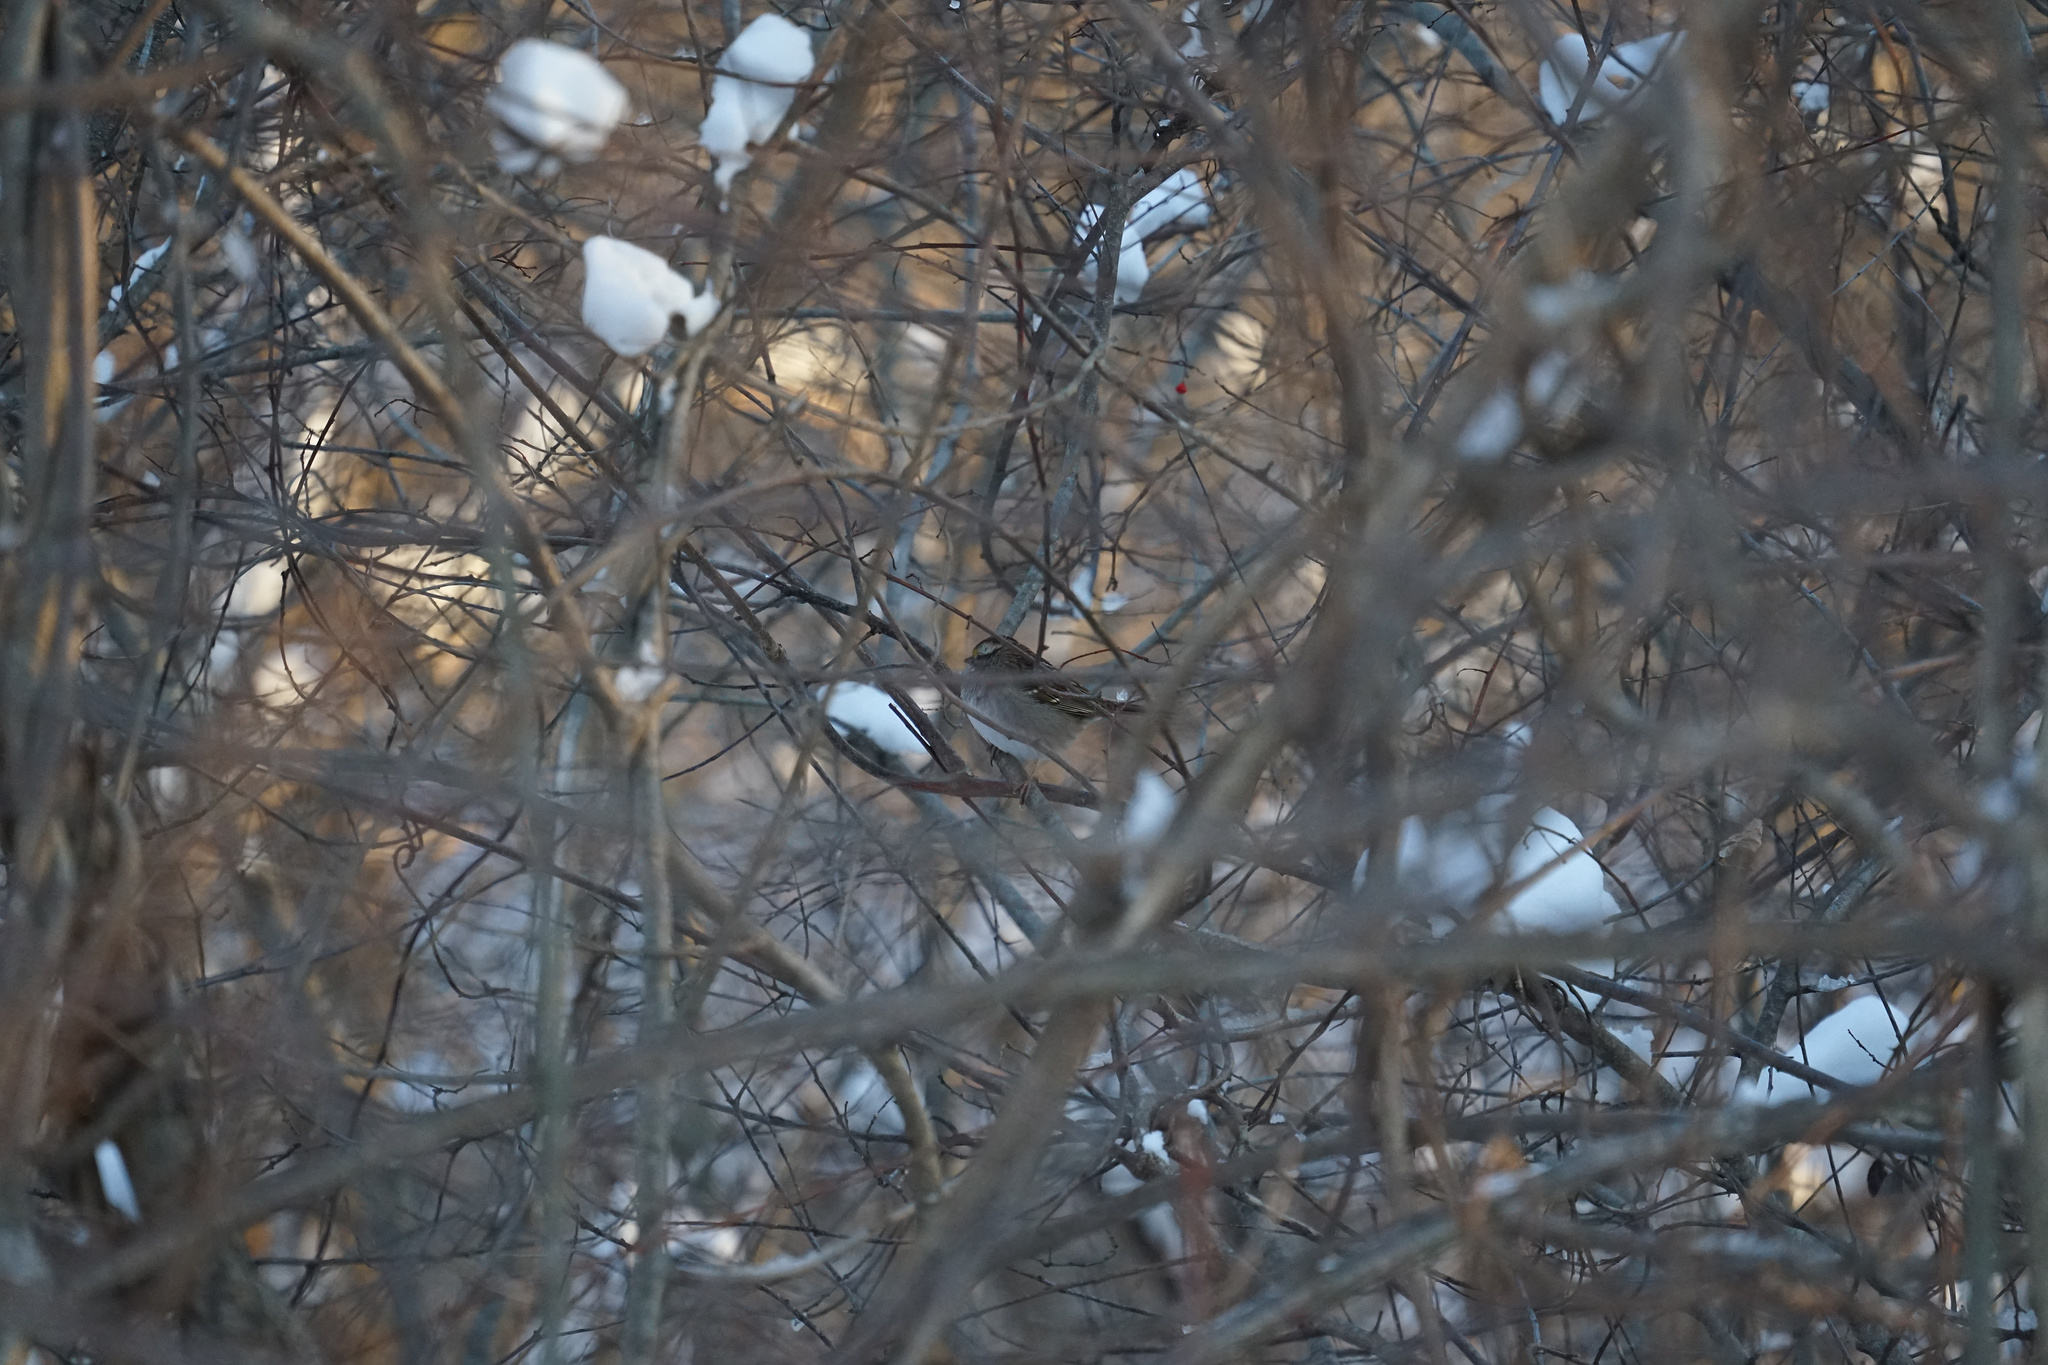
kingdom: Animalia
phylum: Chordata
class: Aves
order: Passeriformes
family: Passerellidae
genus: Zonotrichia
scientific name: Zonotrichia albicollis
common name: White-throated sparrow
